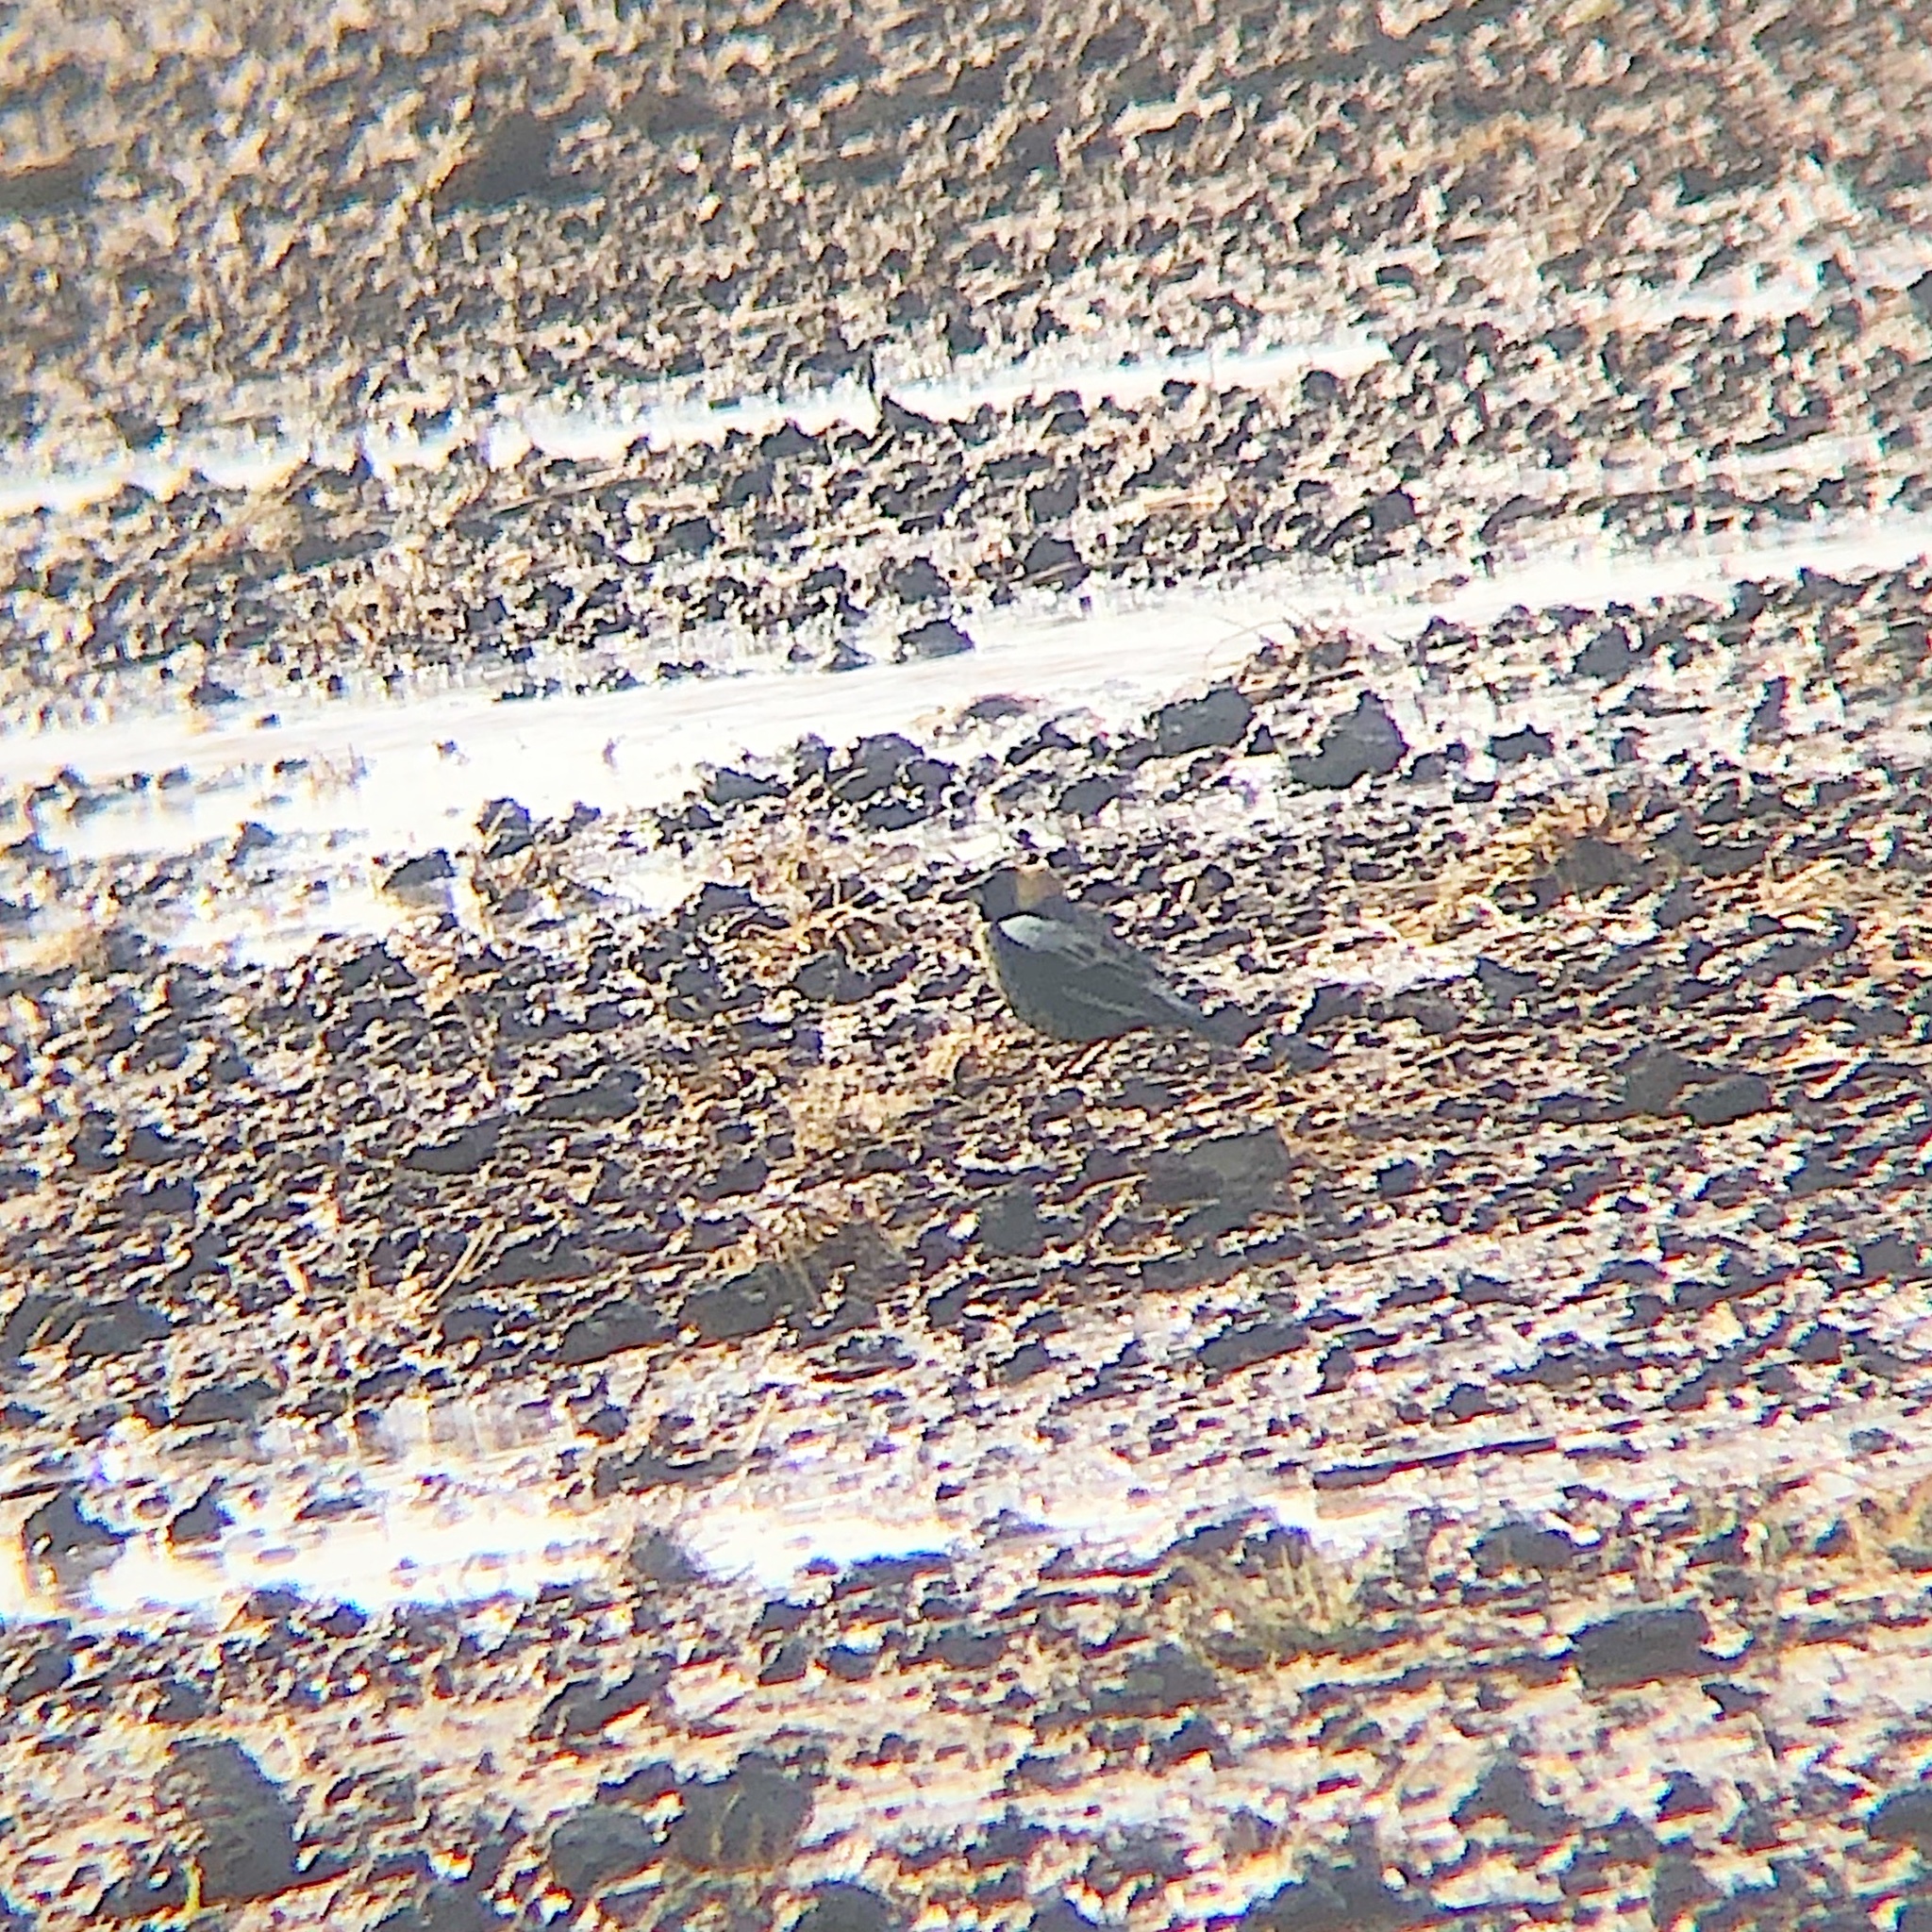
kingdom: Animalia
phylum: Chordata
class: Aves
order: Passeriformes
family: Icteridae
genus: Dolichonyx
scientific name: Dolichonyx oryzivorus
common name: Bobolink
